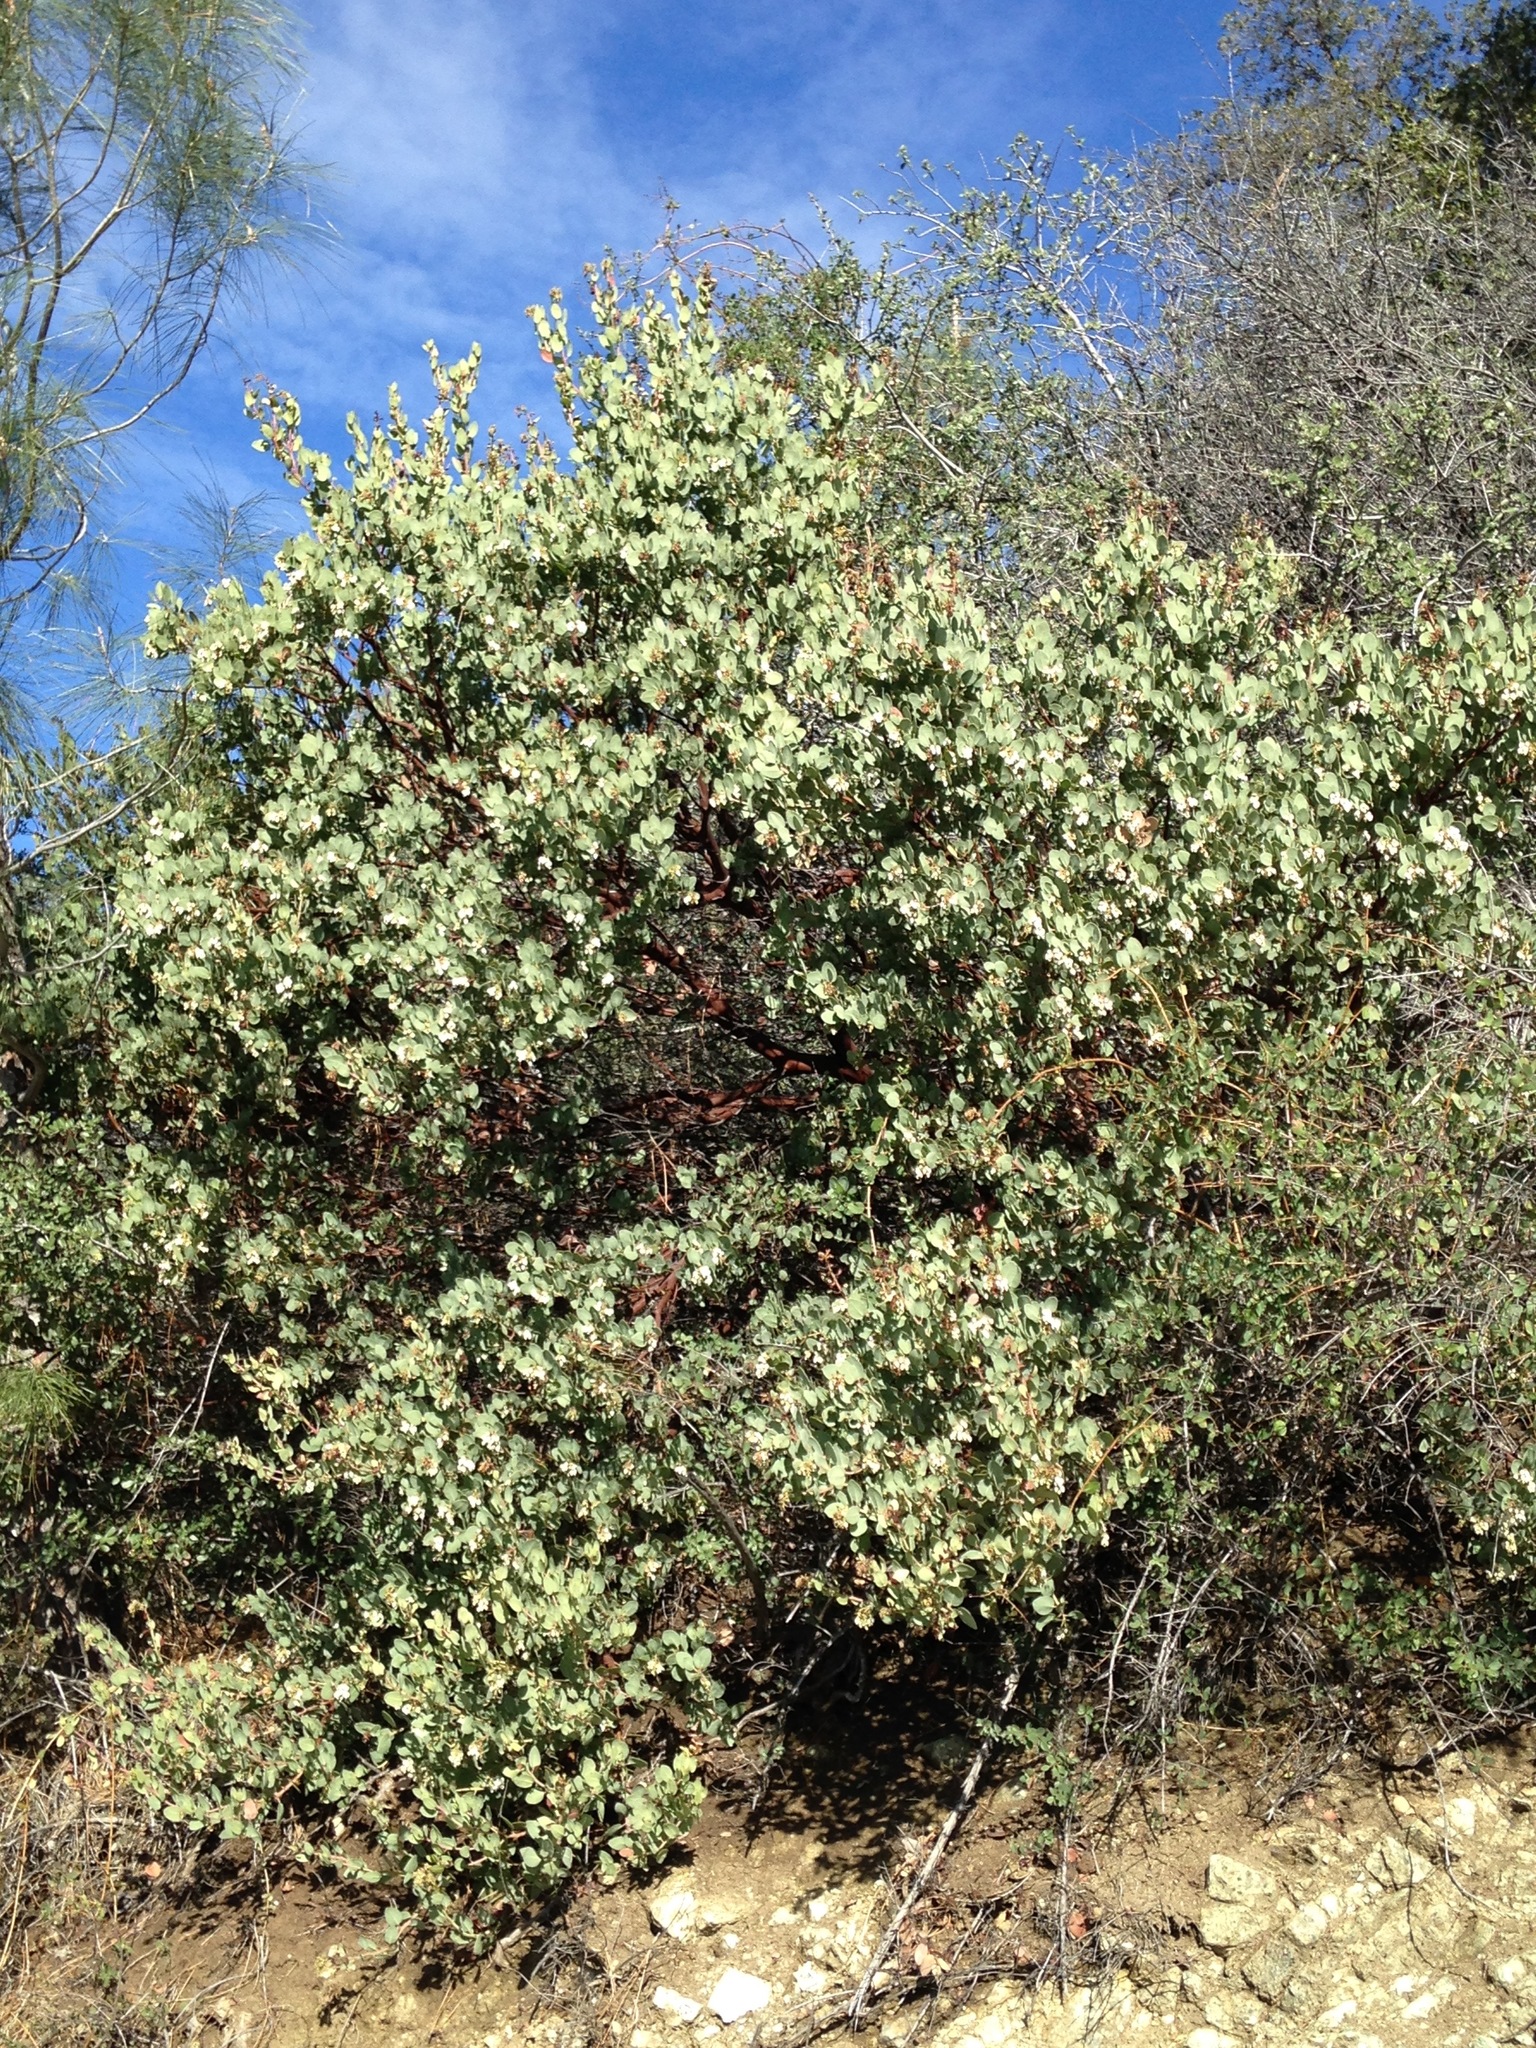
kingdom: Plantae
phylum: Tracheophyta
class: Magnoliopsida
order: Ericales
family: Ericaceae
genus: Arctostaphylos
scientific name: Arctostaphylos glauca
